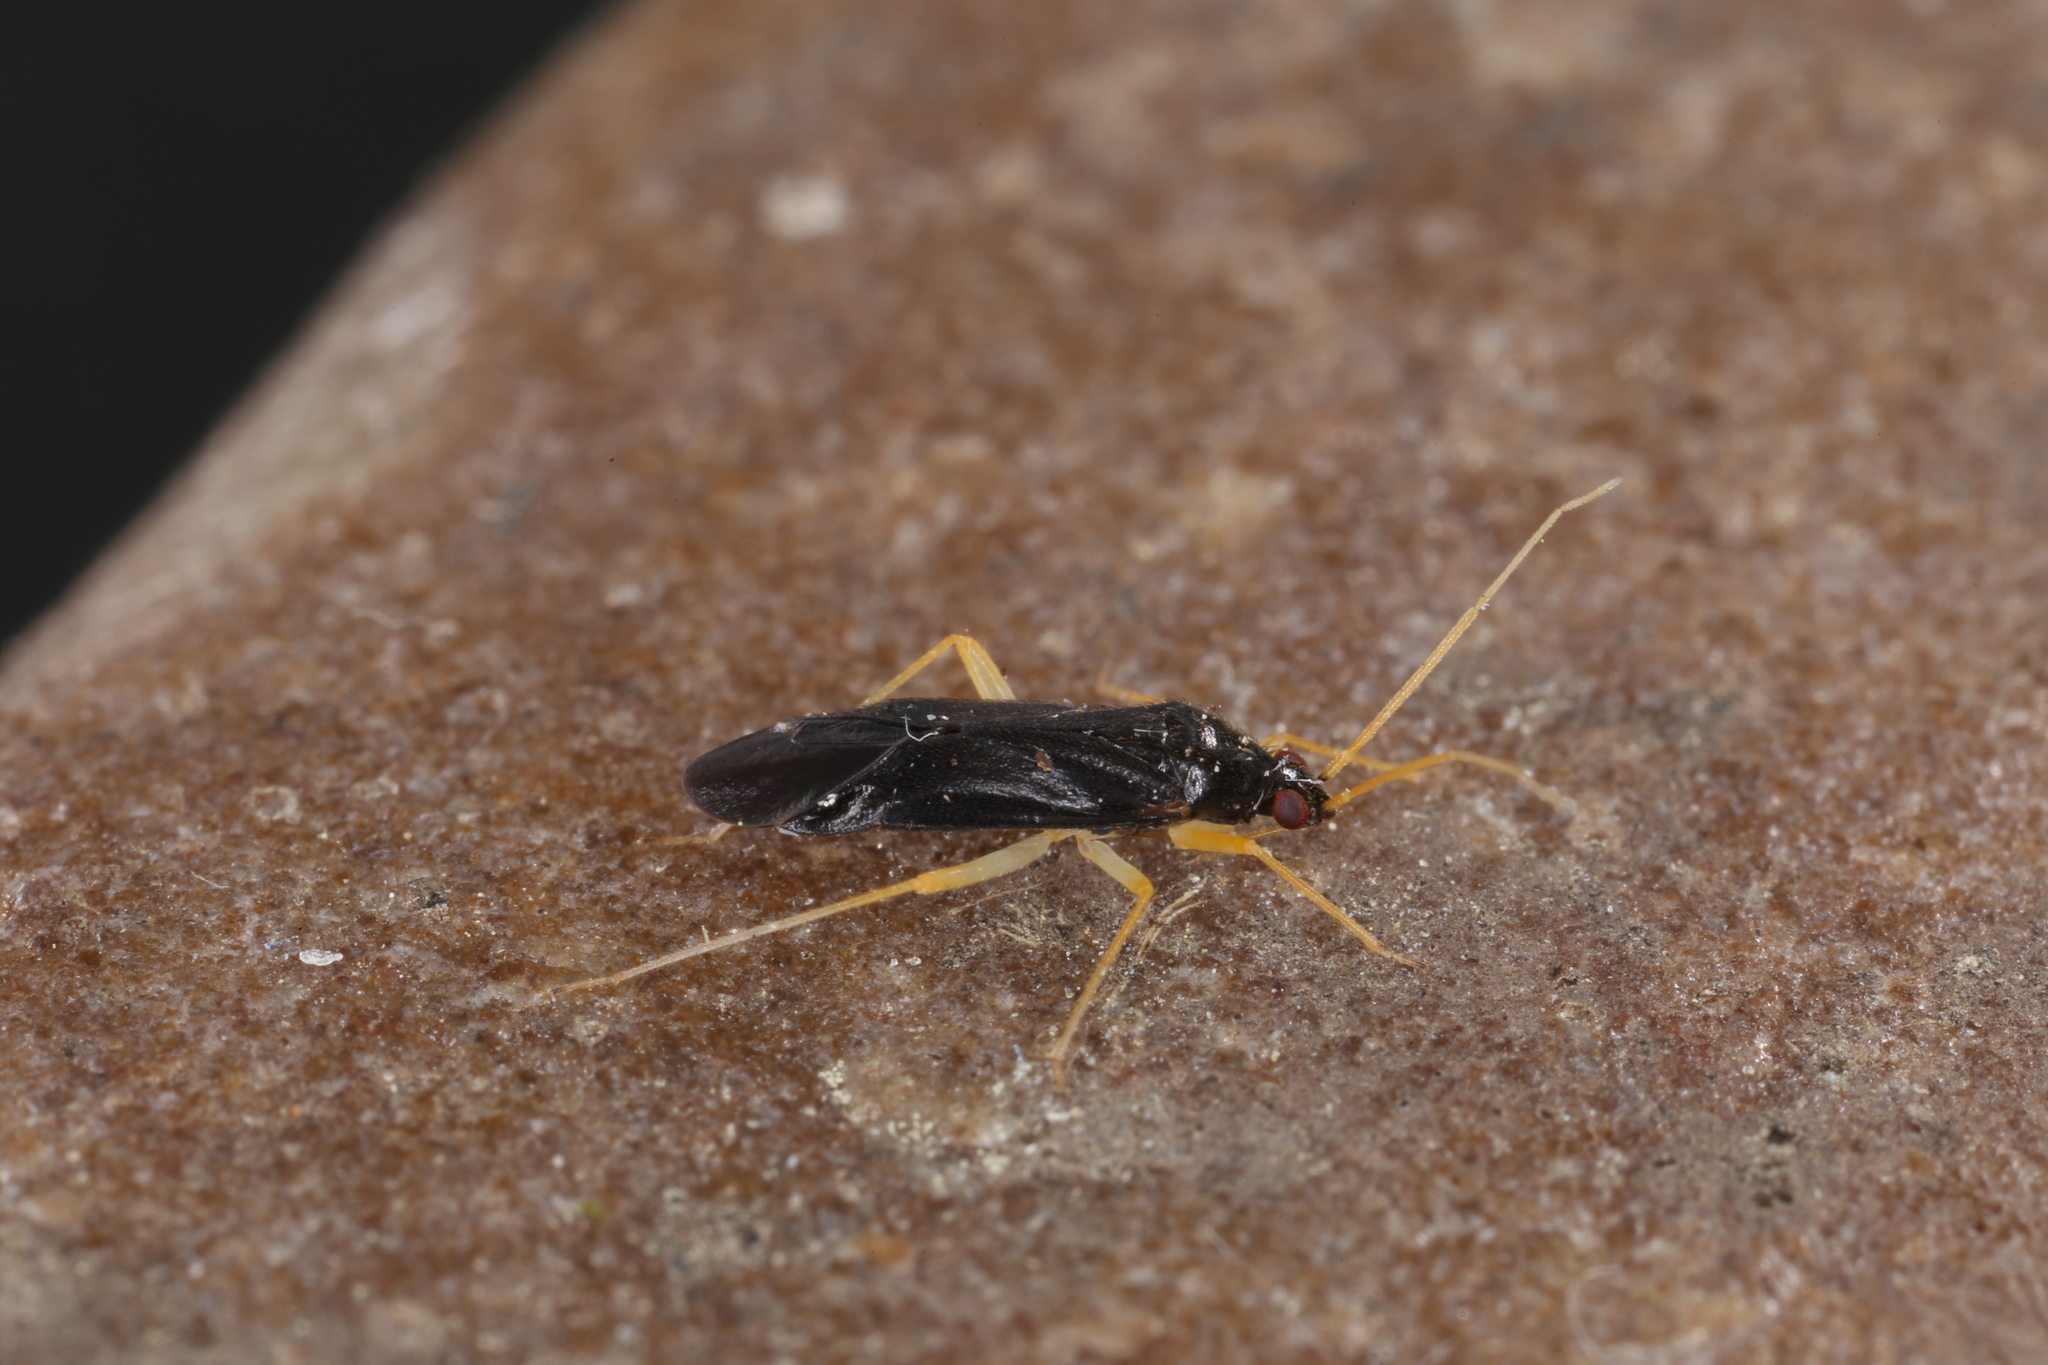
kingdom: Animalia
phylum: Arthropoda
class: Insecta
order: Hemiptera
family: Miridae
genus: Phylus
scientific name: Phylus coryli
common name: Plant bug
